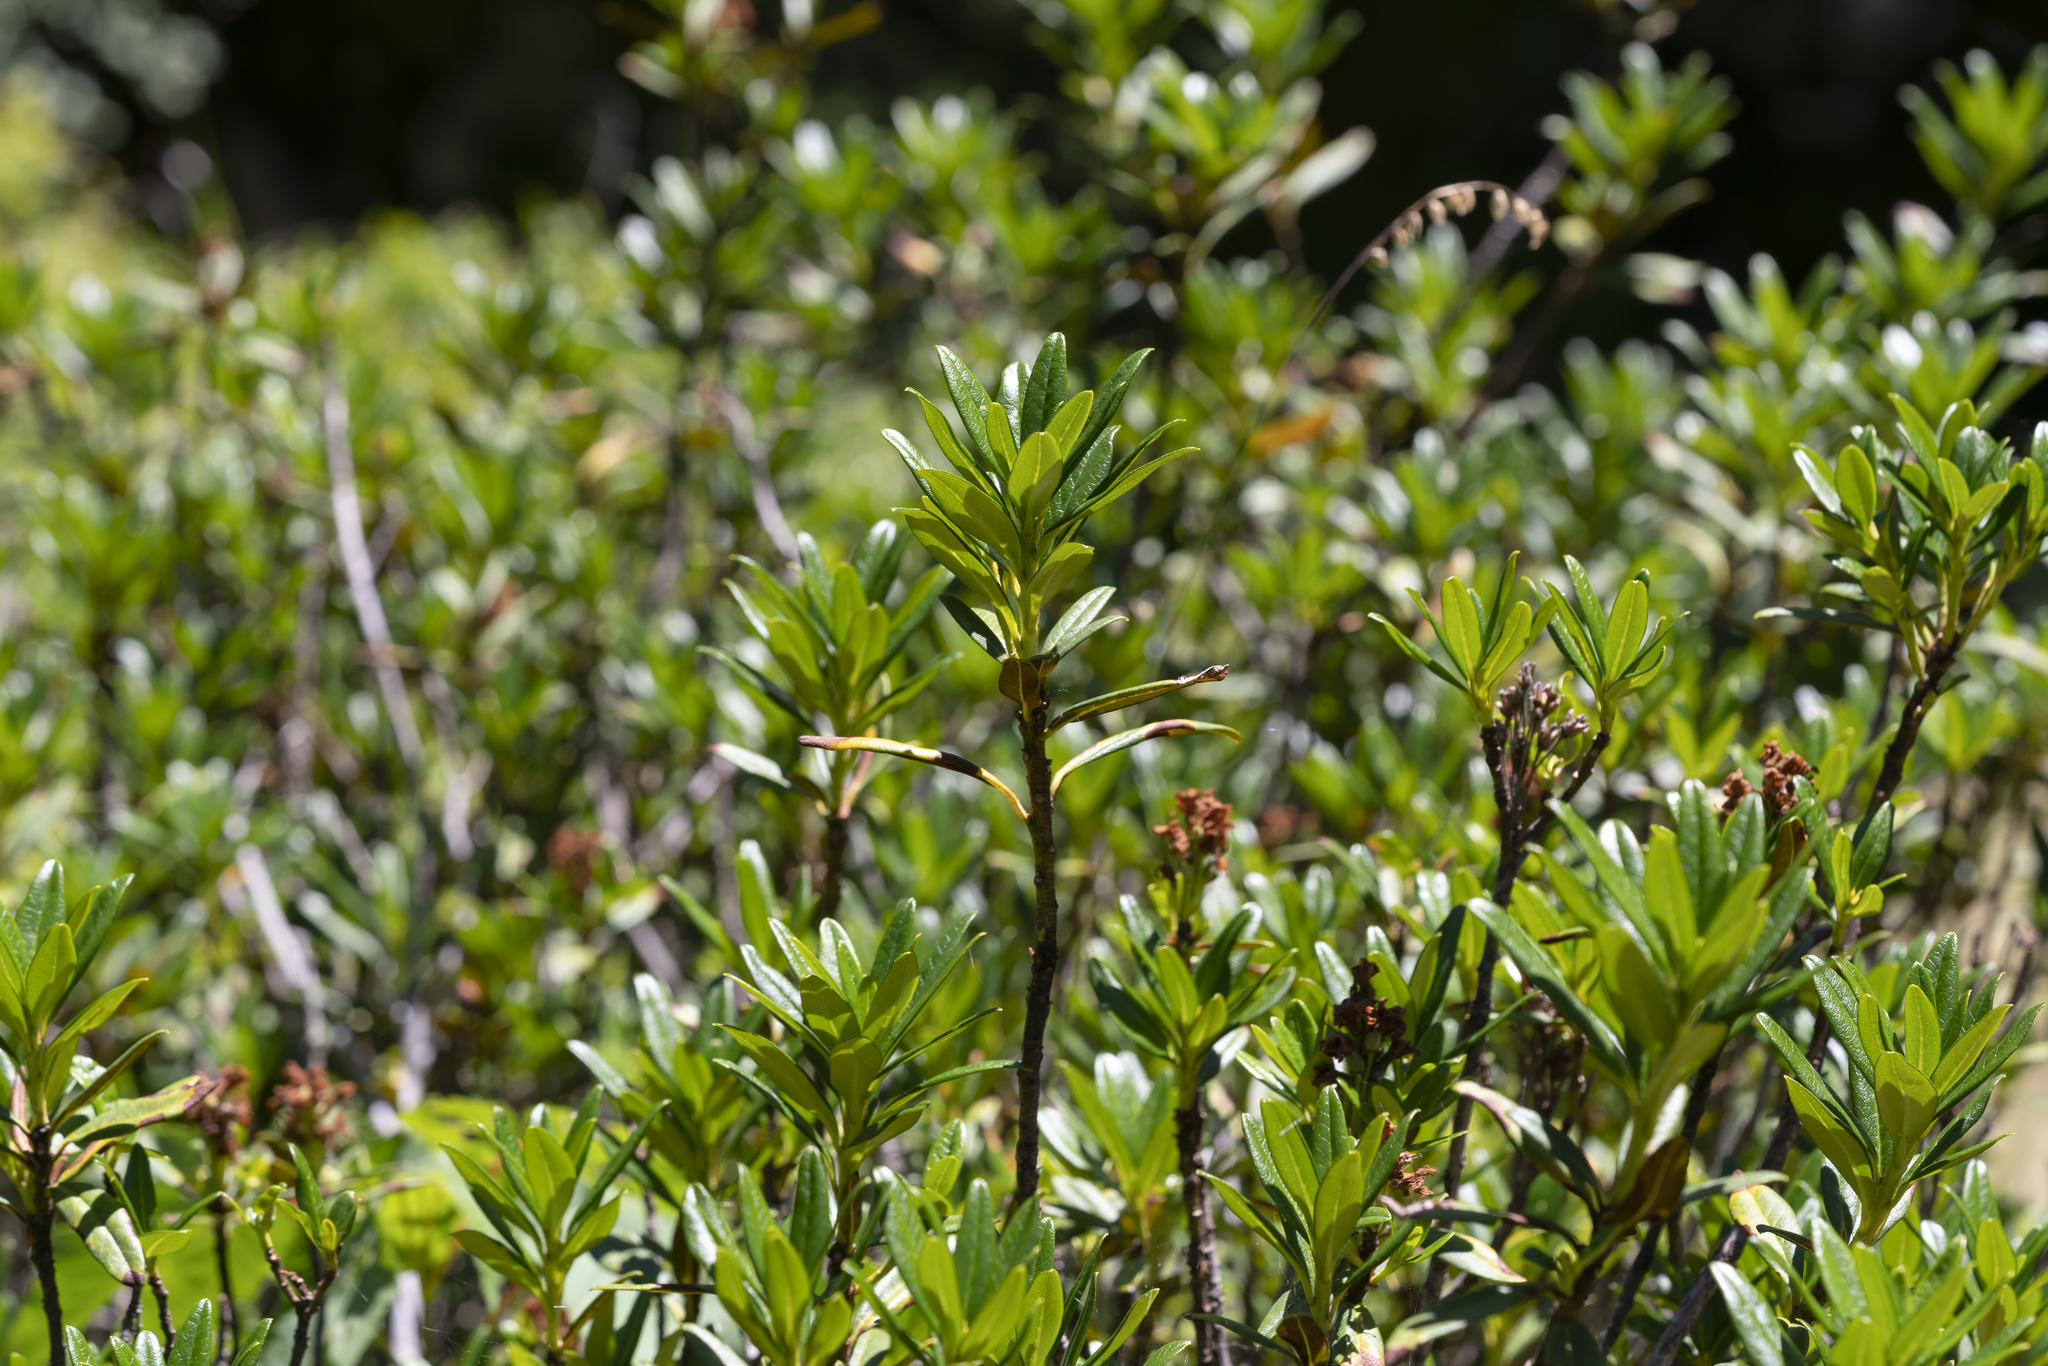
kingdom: Plantae
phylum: Tracheophyta
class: Magnoliopsida
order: Ericales
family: Ericaceae
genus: Rhododendron
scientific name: Rhododendron ferrugineum
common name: Alpenrose
